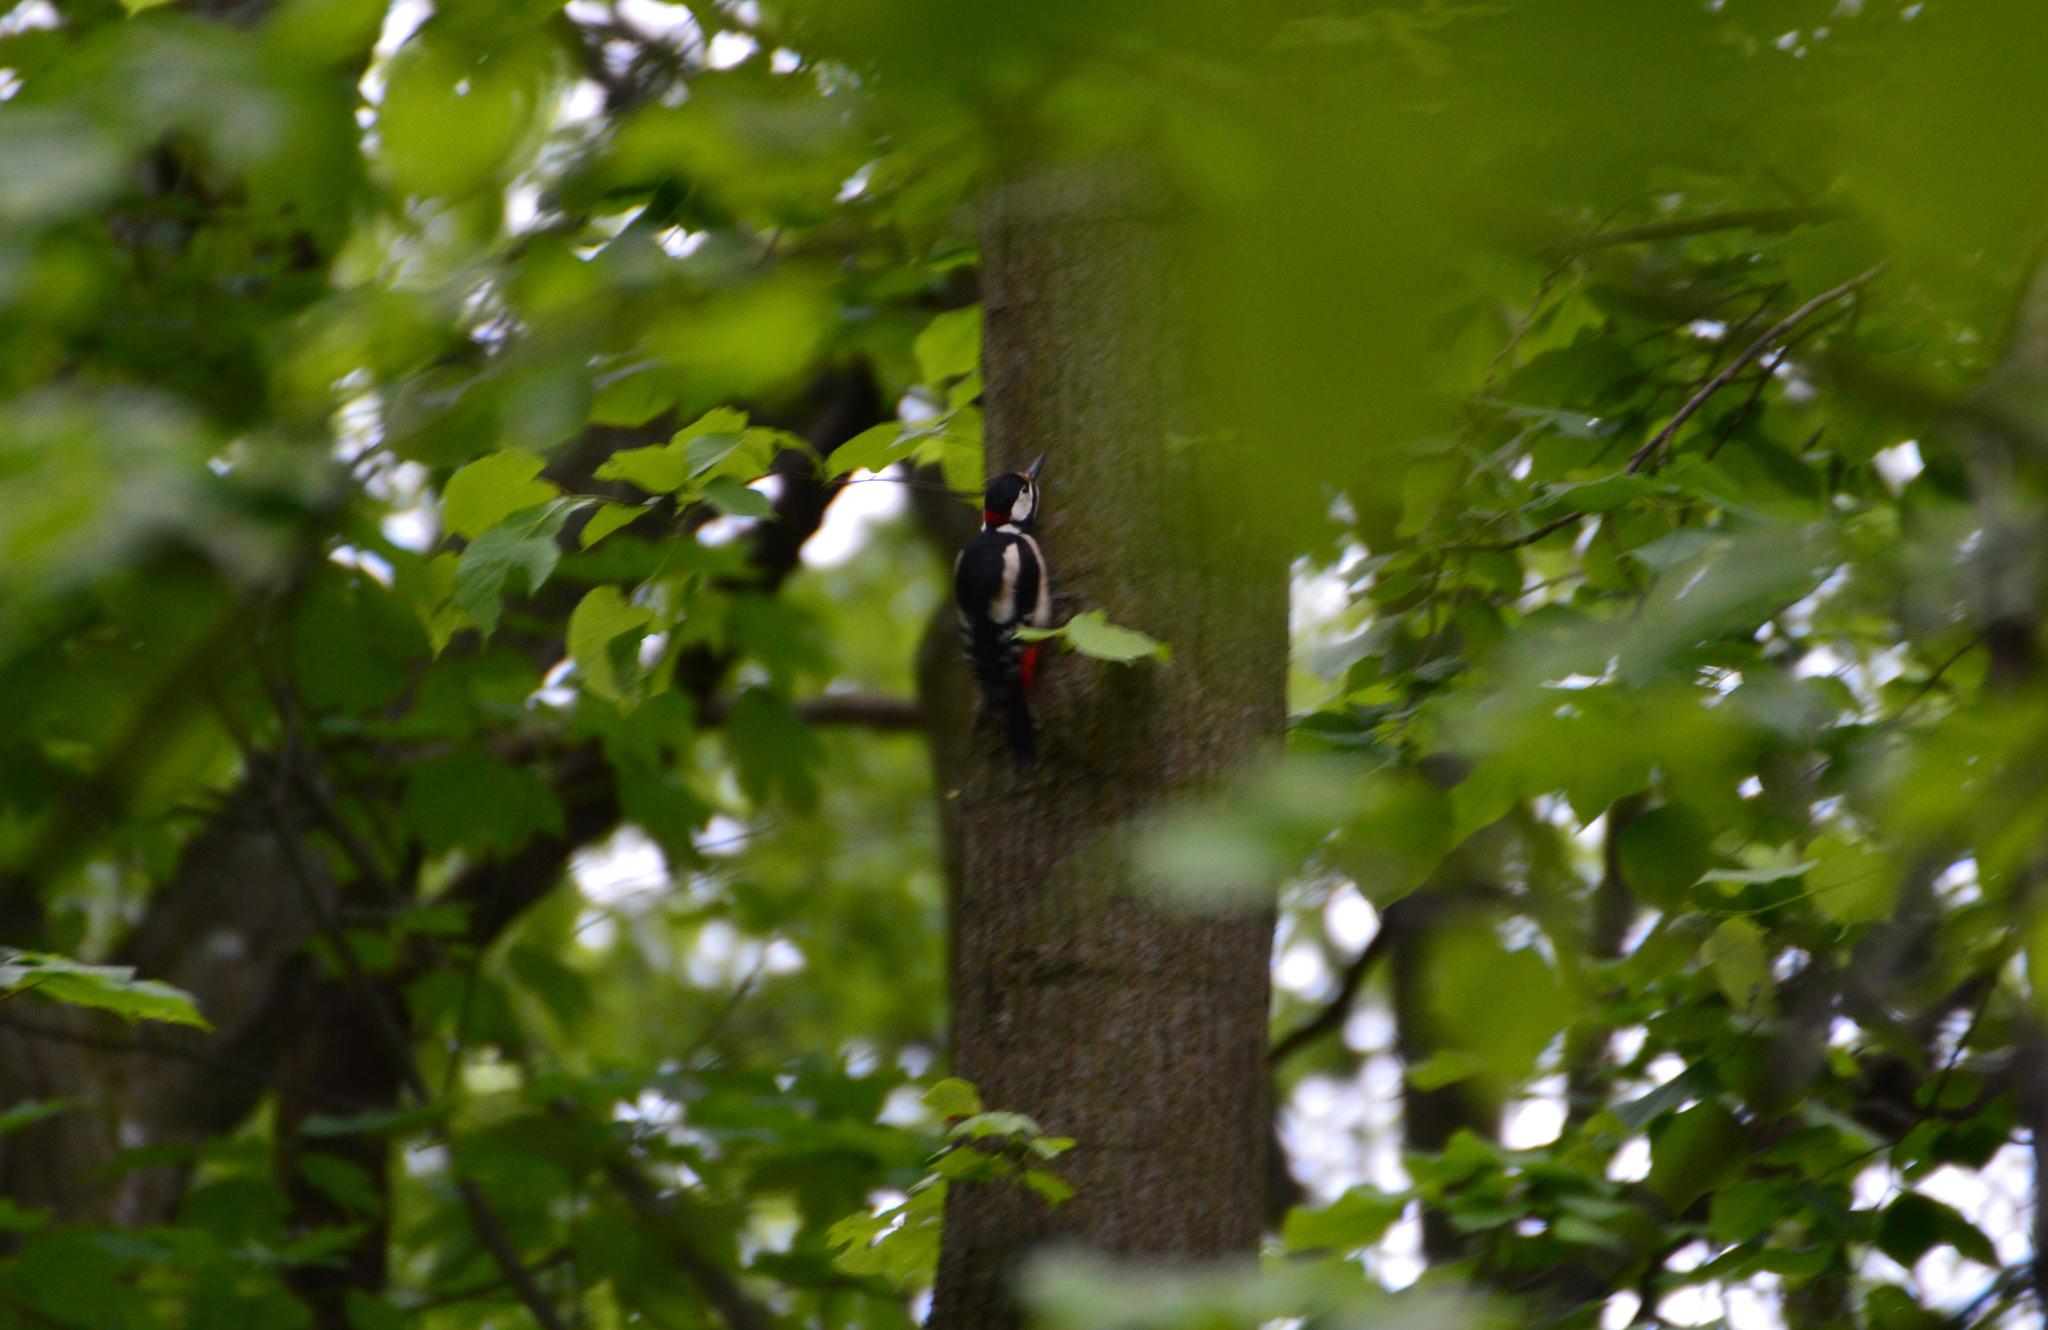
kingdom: Animalia
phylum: Chordata
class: Aves
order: Piciformes
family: Picidae
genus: Dendrocopos
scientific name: Dendrocopos major
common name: Great spotted woodpecker
